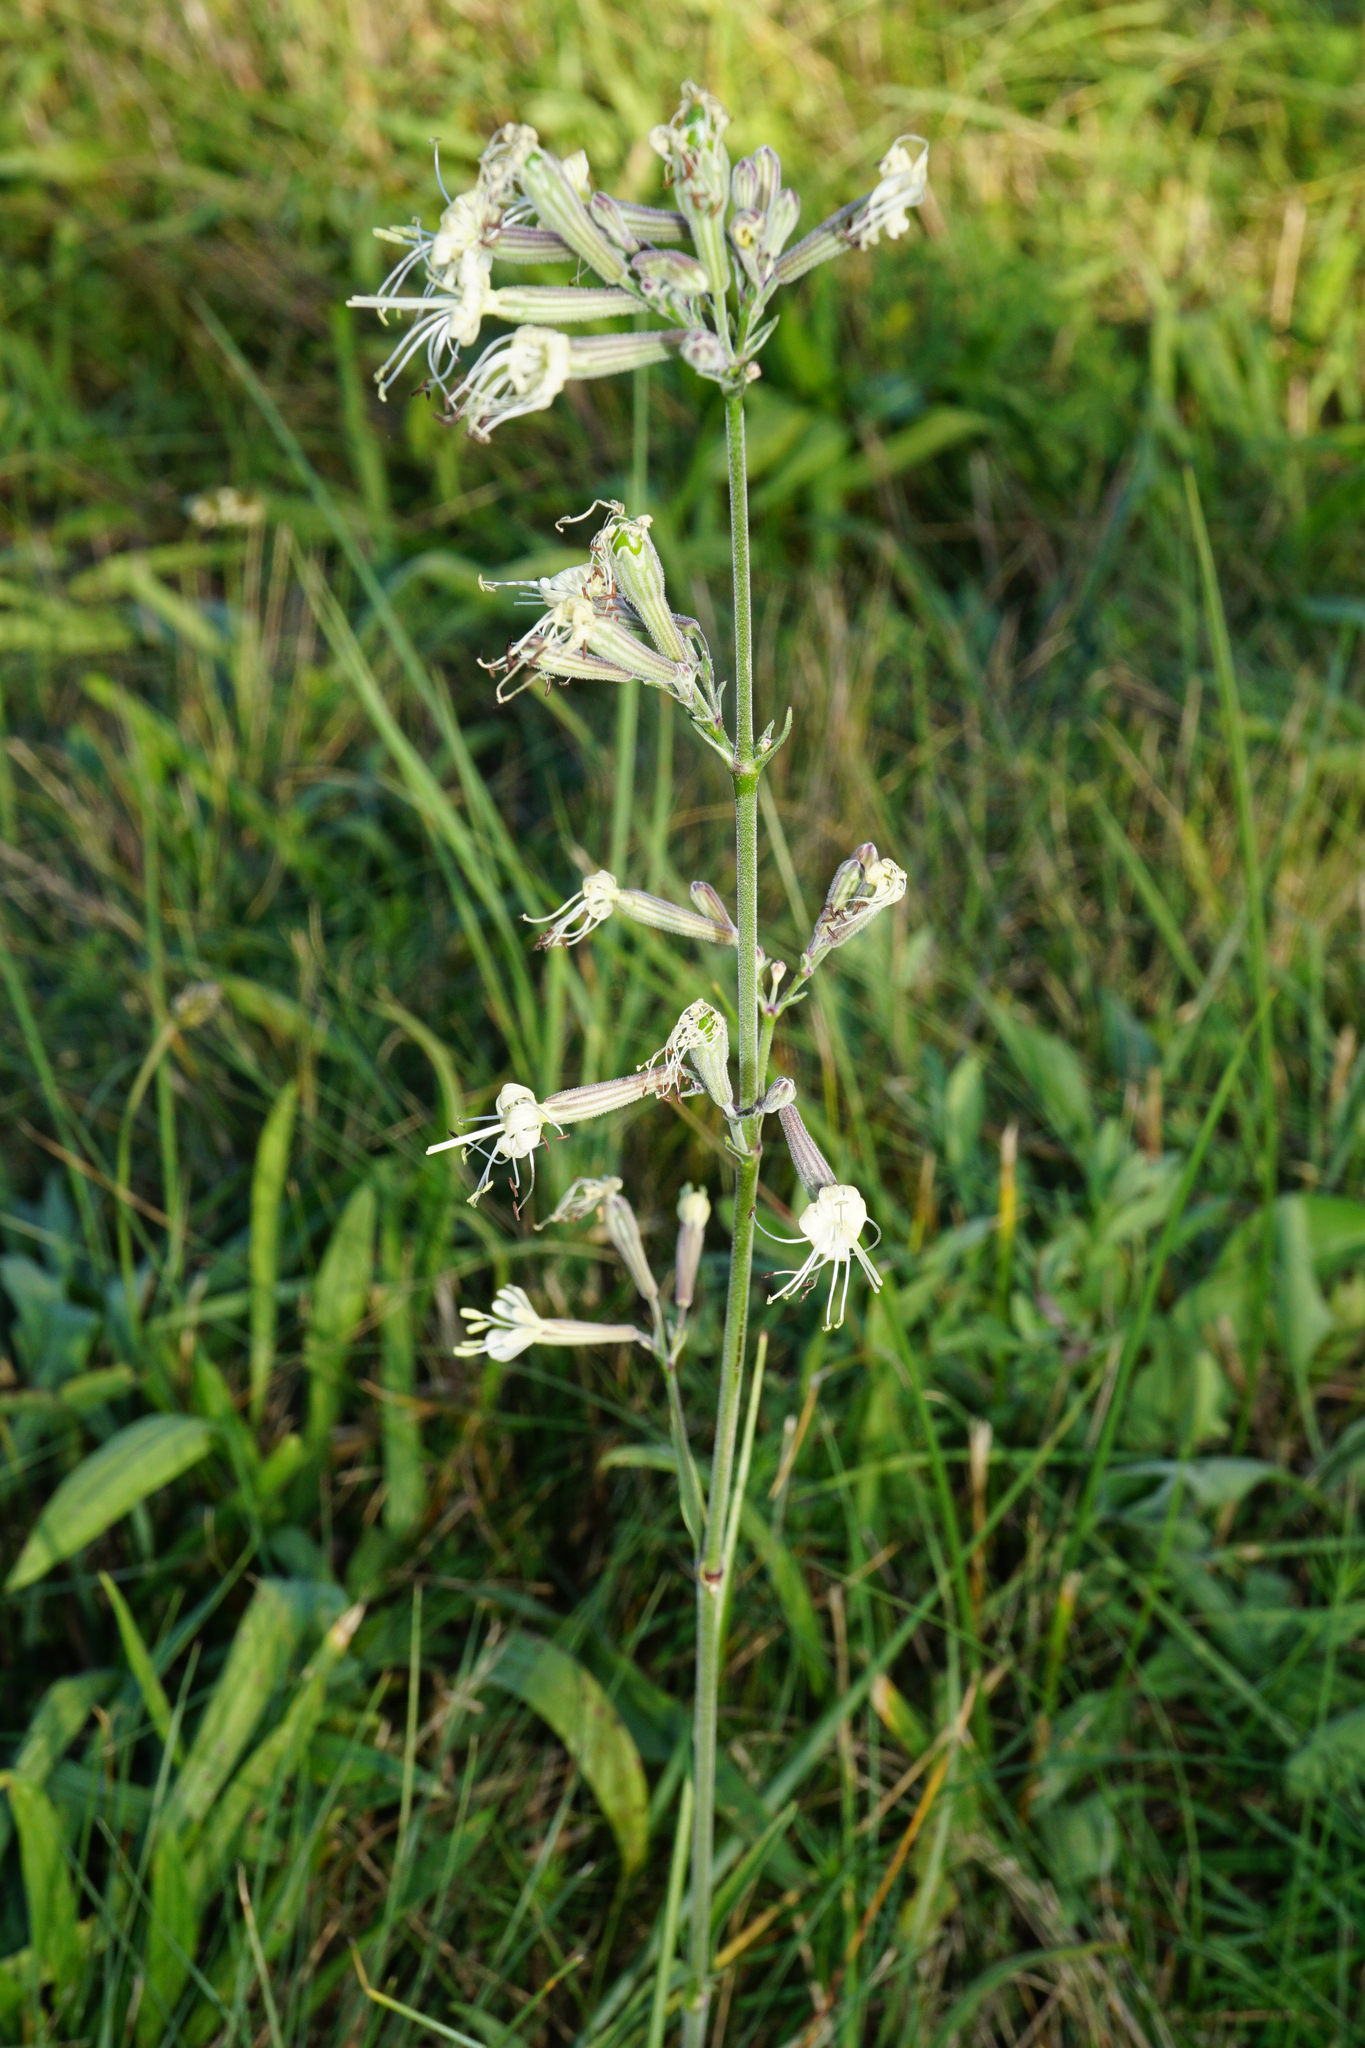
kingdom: Plantae
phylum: Tracheophyta
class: Magnoliopsida
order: Caryophyllales
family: Caryophyllaceae
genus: Silene
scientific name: Silene multiflora
